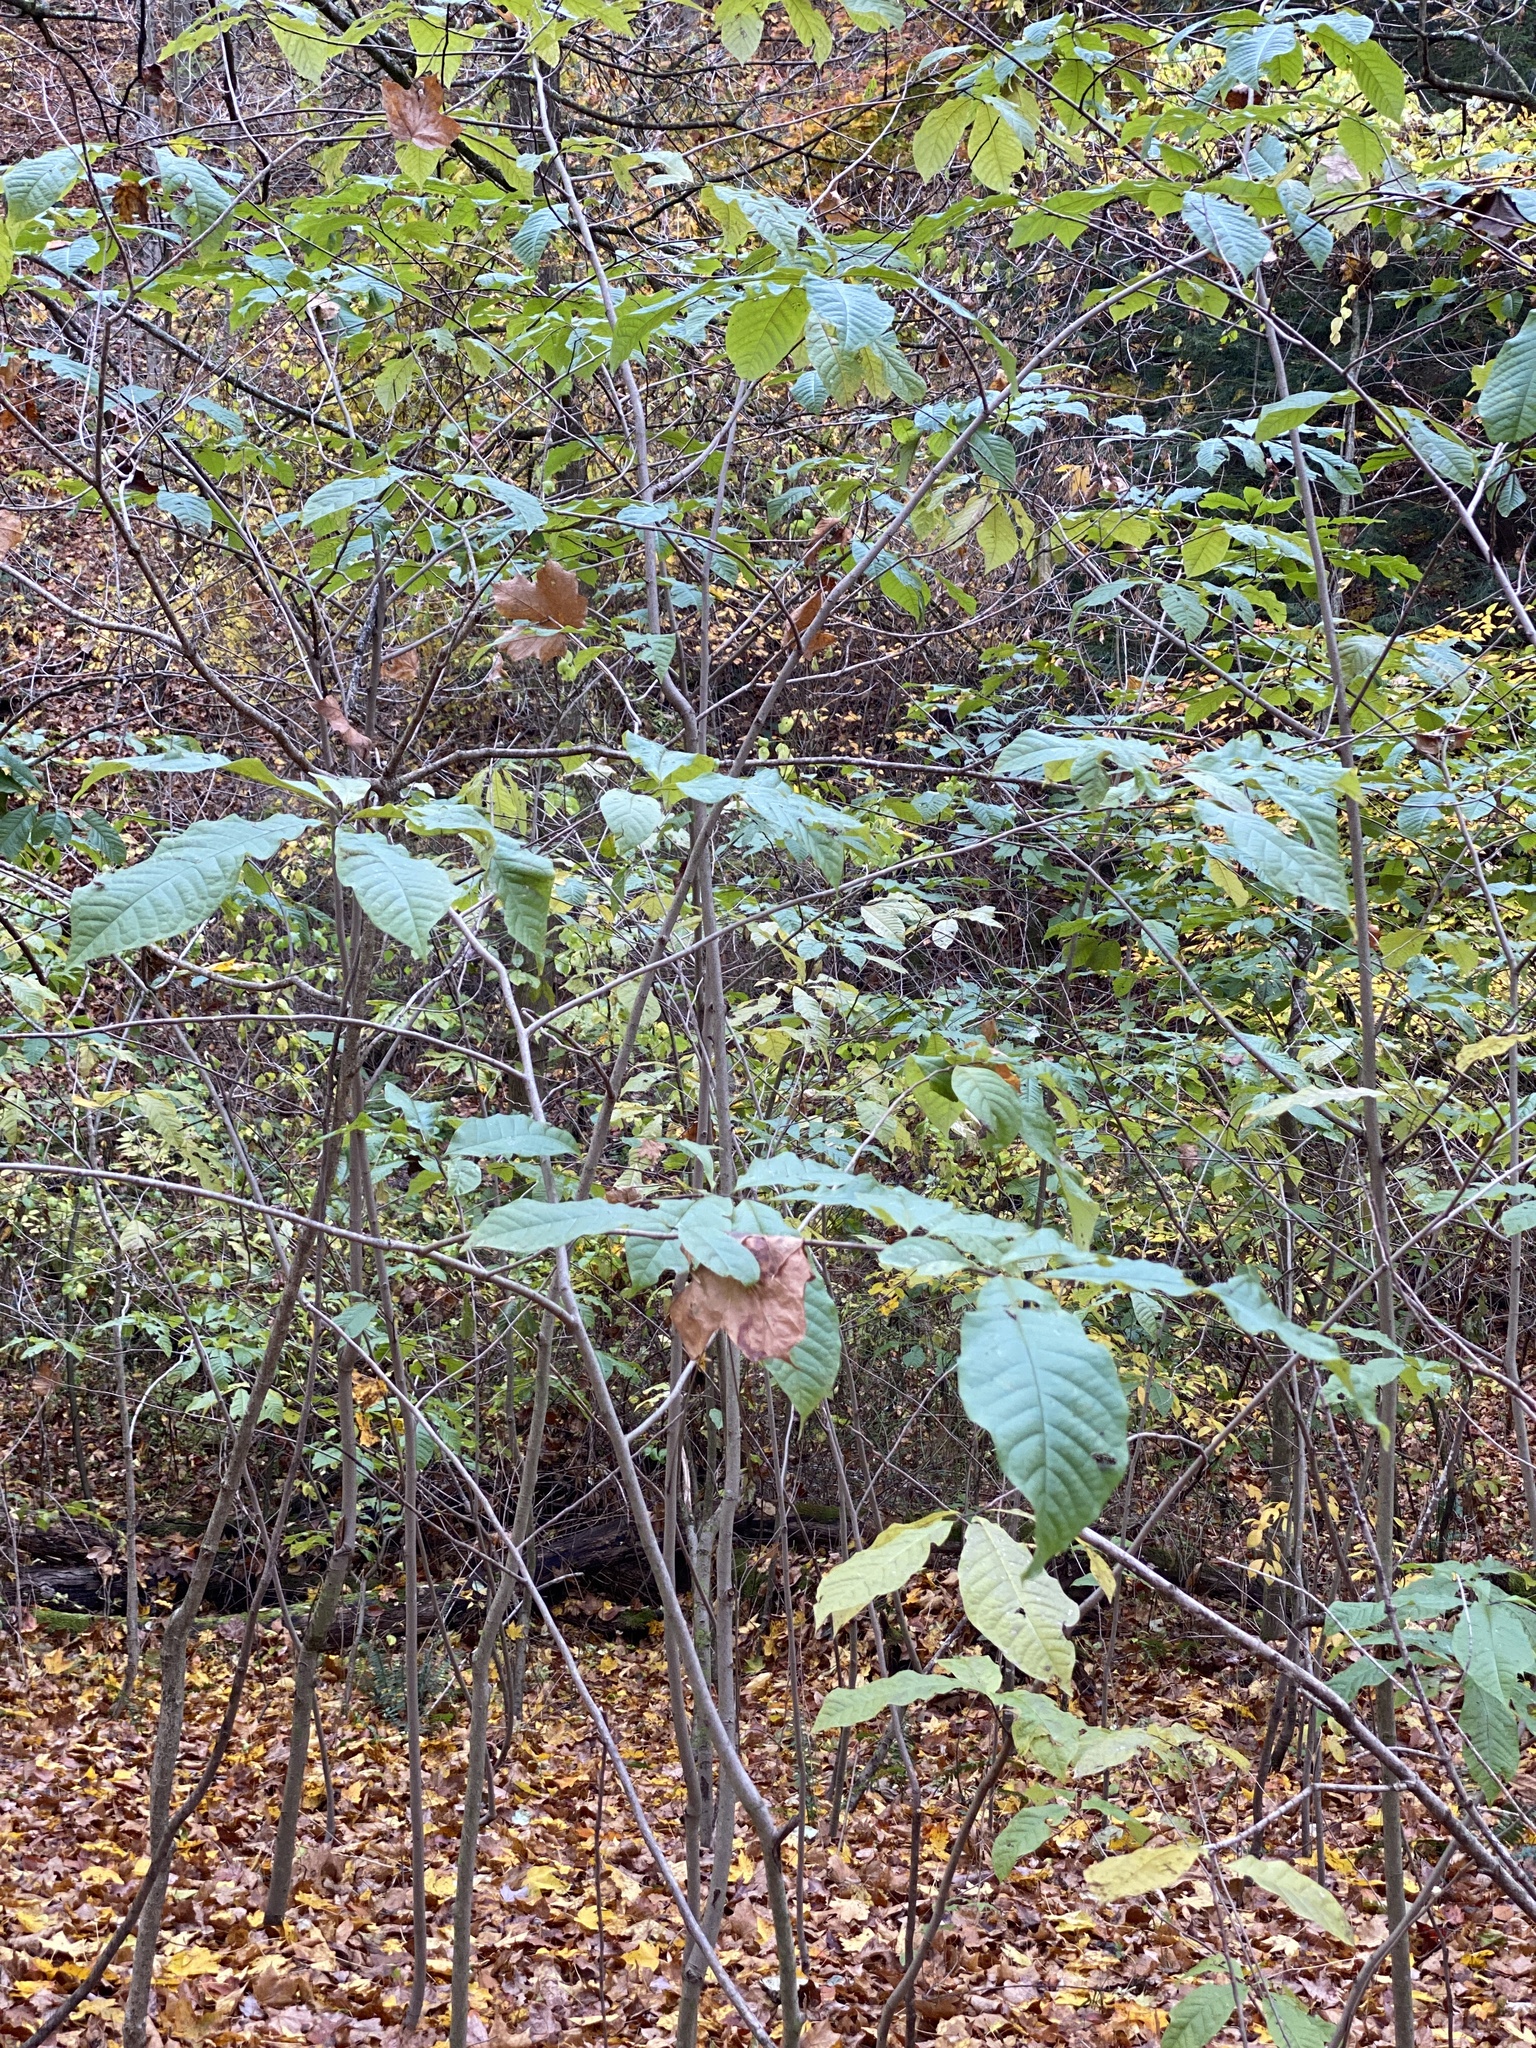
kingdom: Plantae
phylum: Tracheophyta
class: Magnoliopsida
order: Magnoliales
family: Annonaceae
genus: Asimina
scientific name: Asimina triloba
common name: Dog-banana
